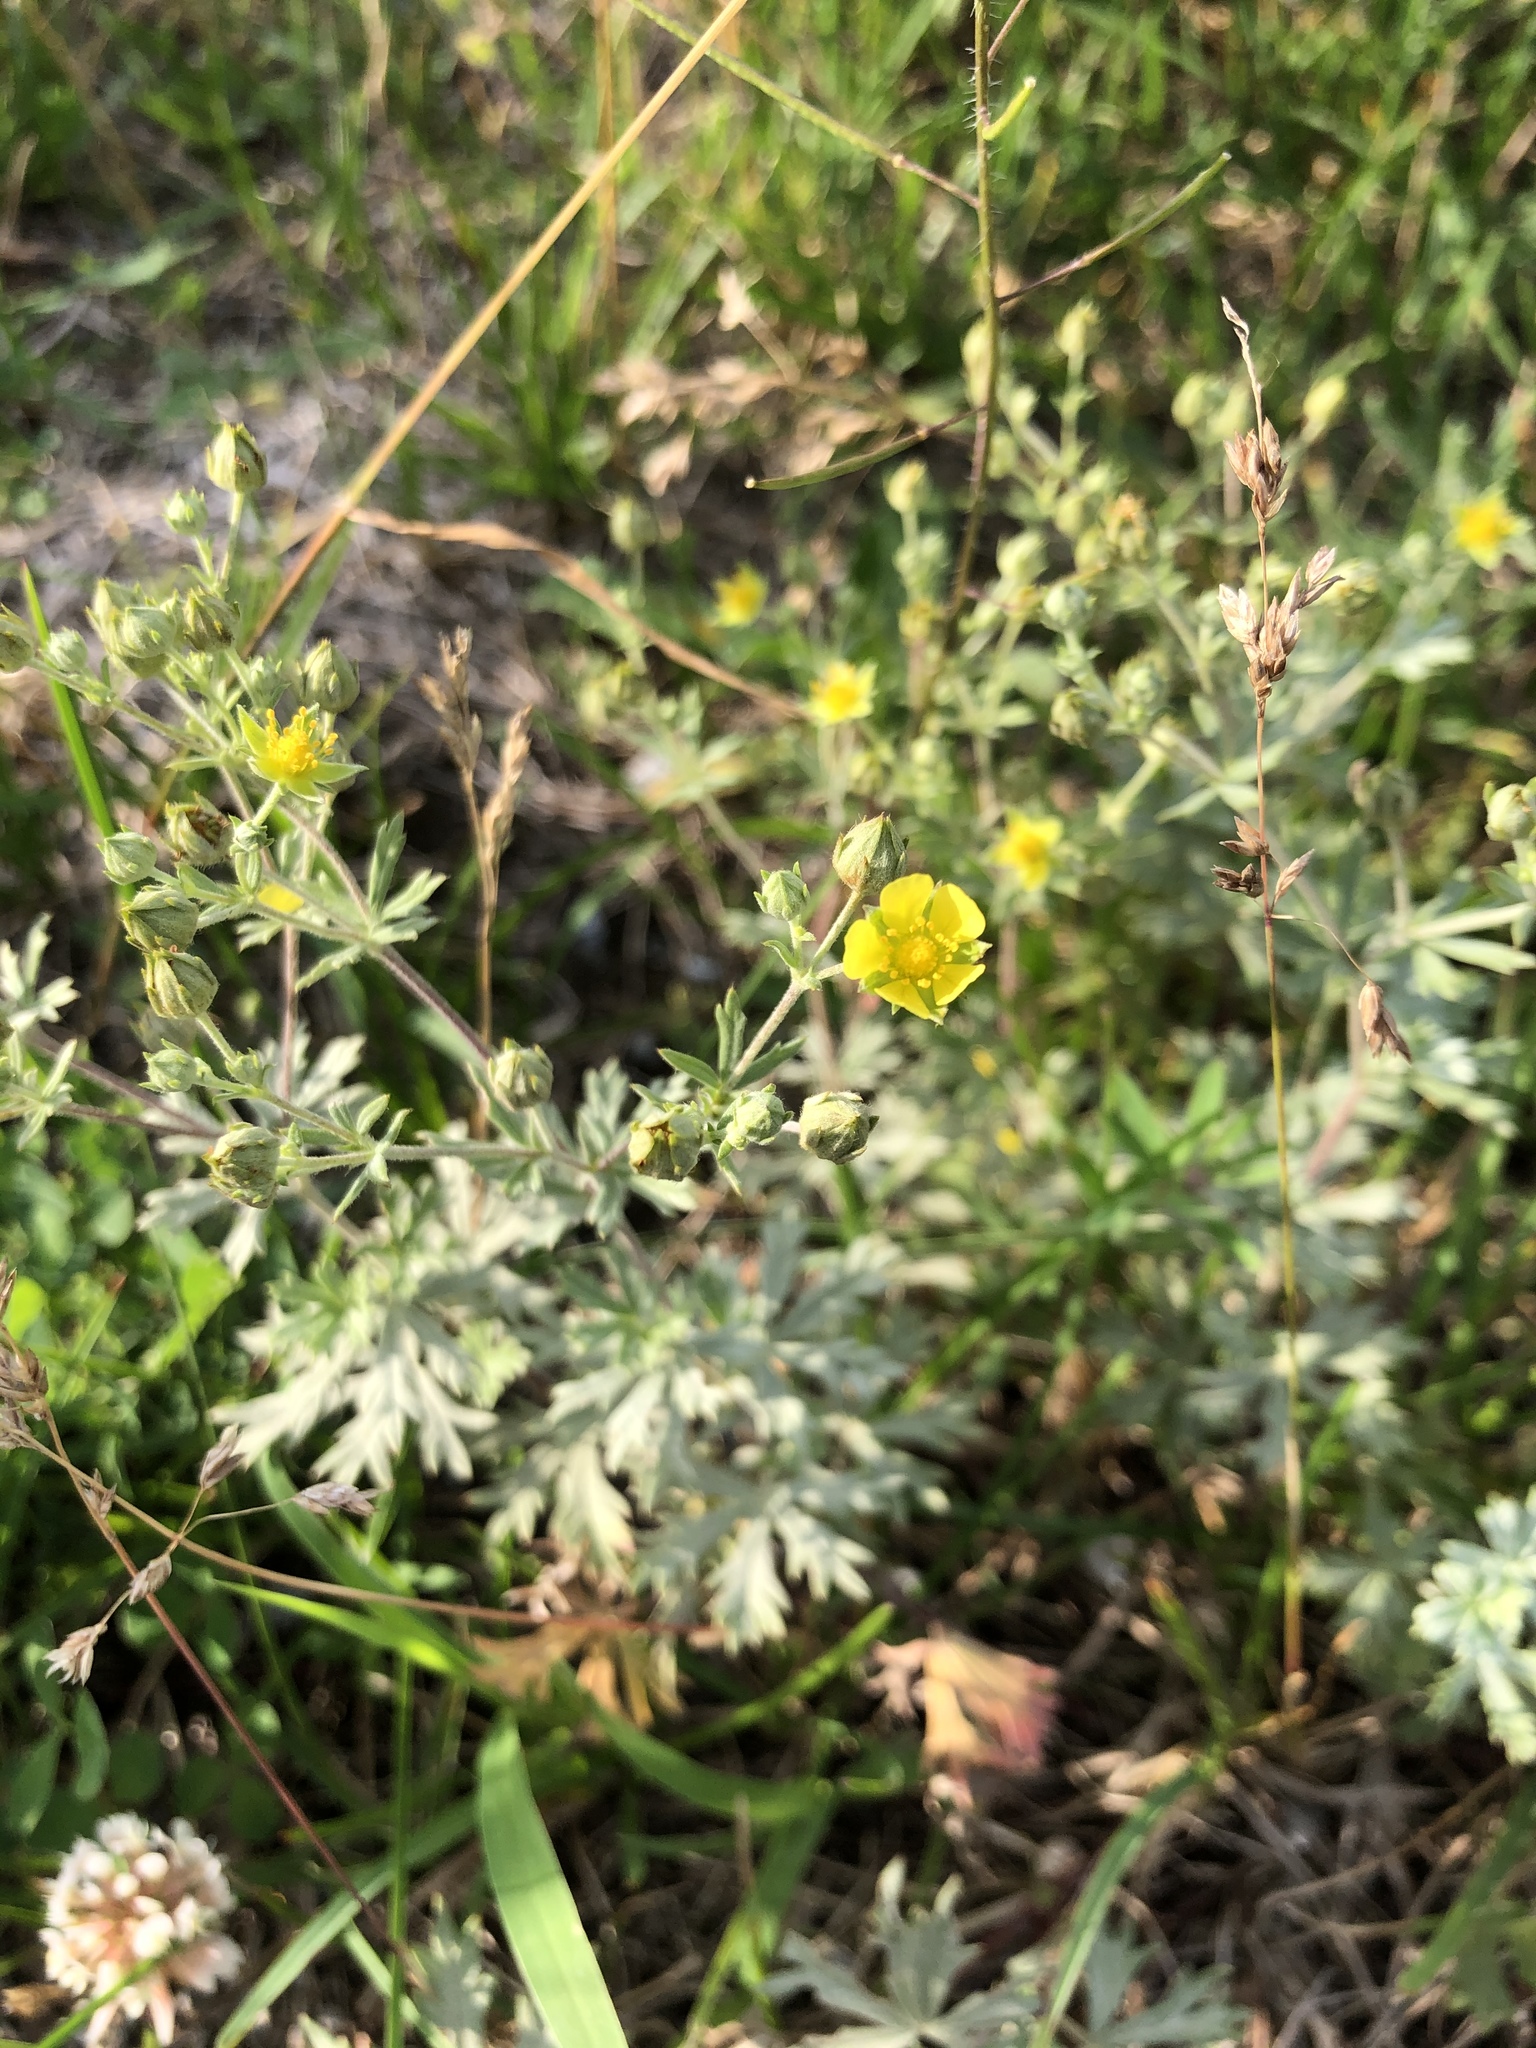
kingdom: Plantae
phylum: Tracheophyta
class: Magnoliopsida
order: Rosales
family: Rosaceae
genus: Potentilla
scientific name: Potentilla argentea
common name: Hoary cinquefoil
